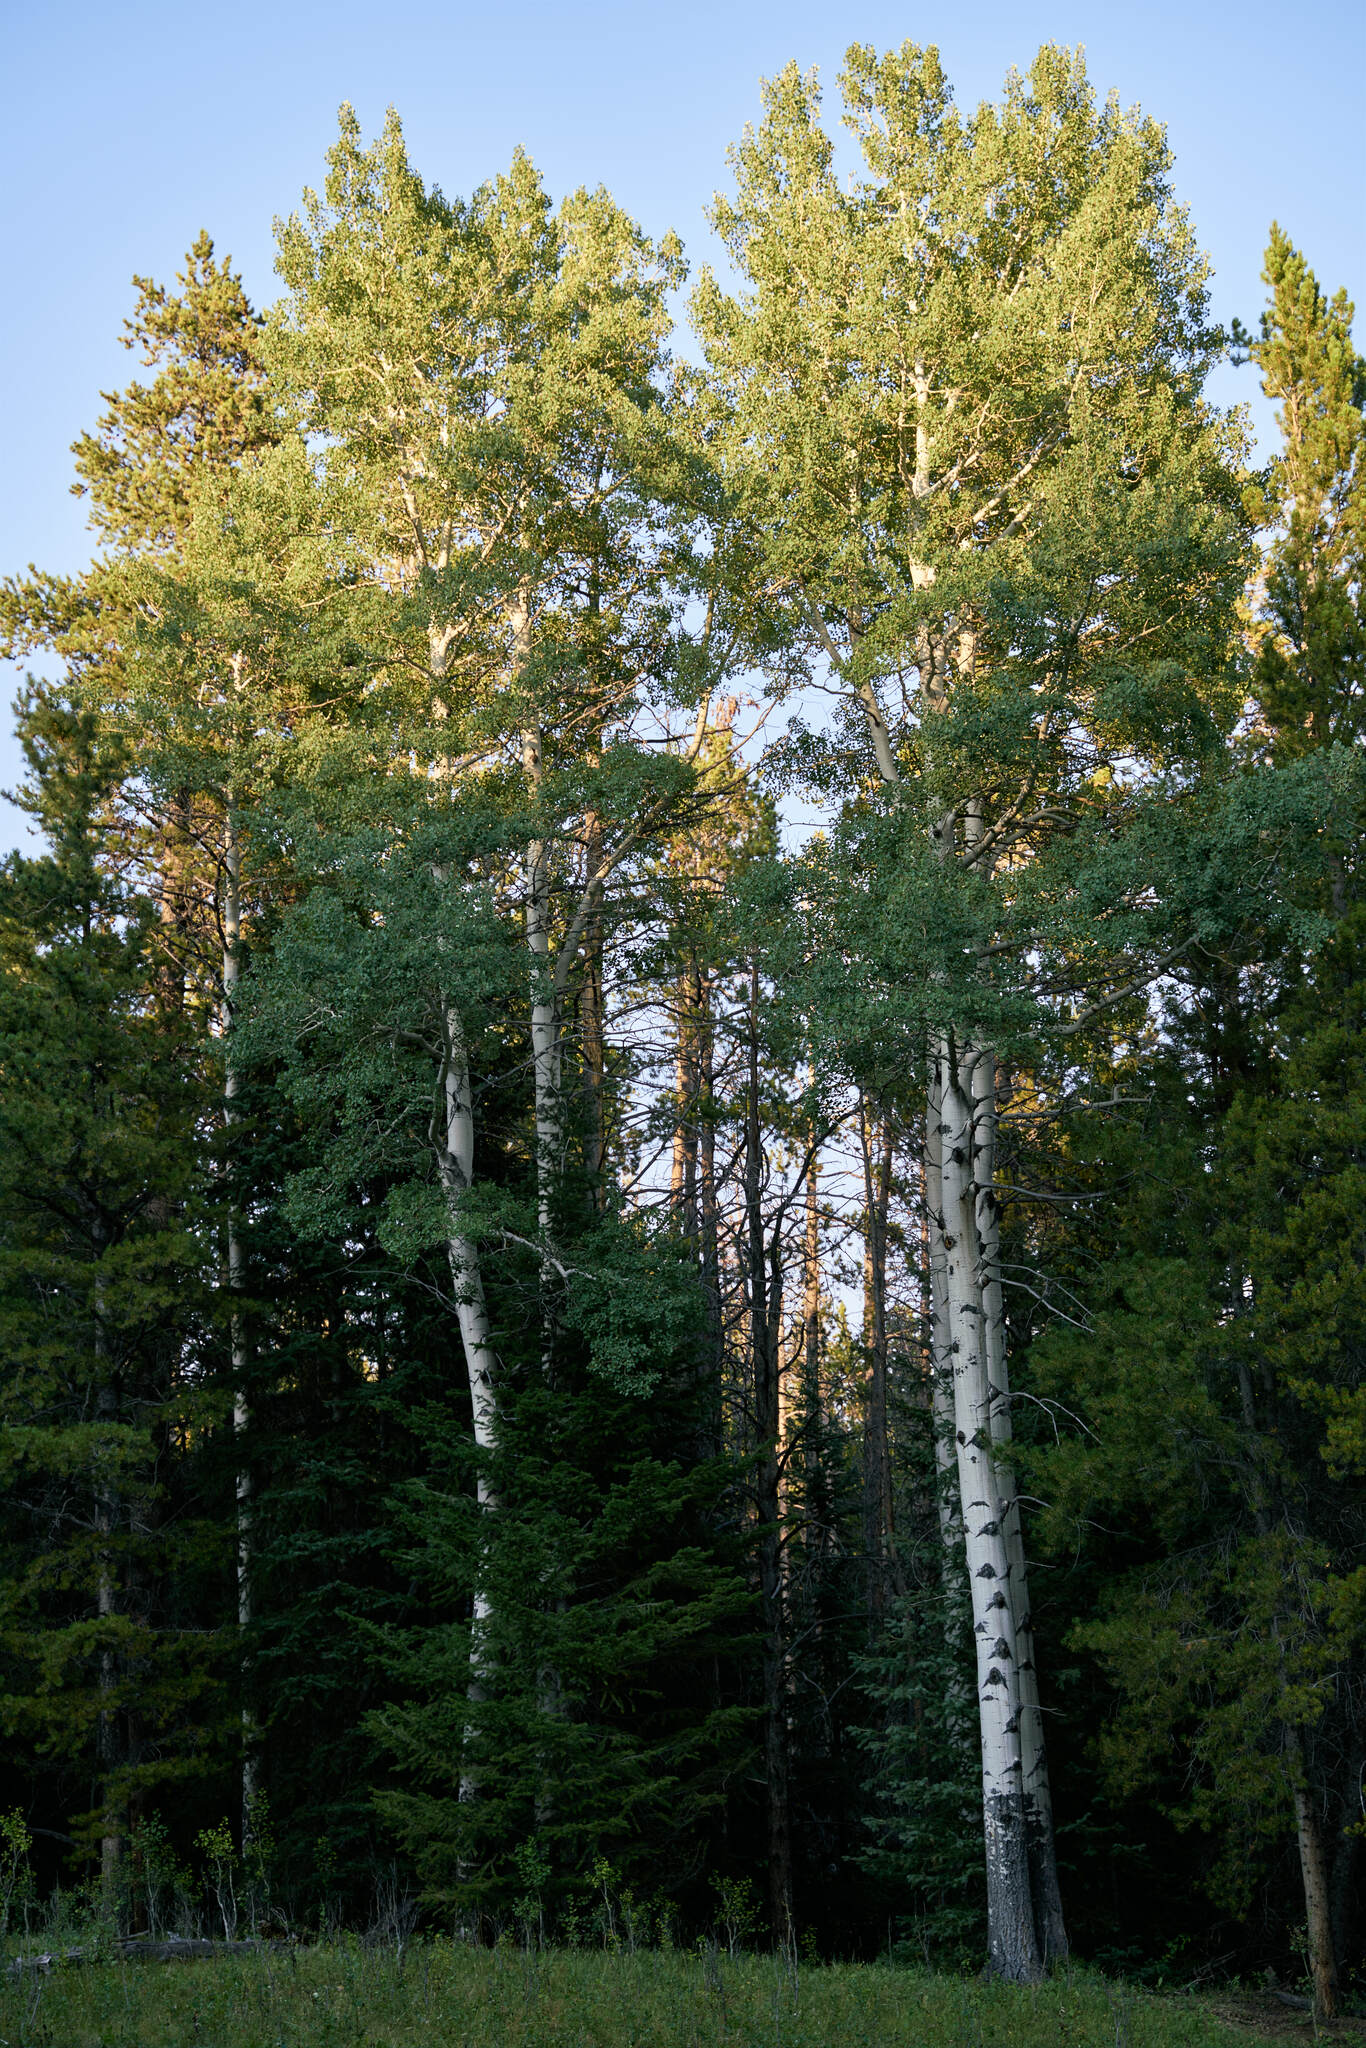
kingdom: Plantae
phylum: Tracheophyta
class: Magnoliopsida
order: Malpighiales
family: Salicaceae
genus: Populus
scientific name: Populus tremuloides
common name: Quaking aspen
